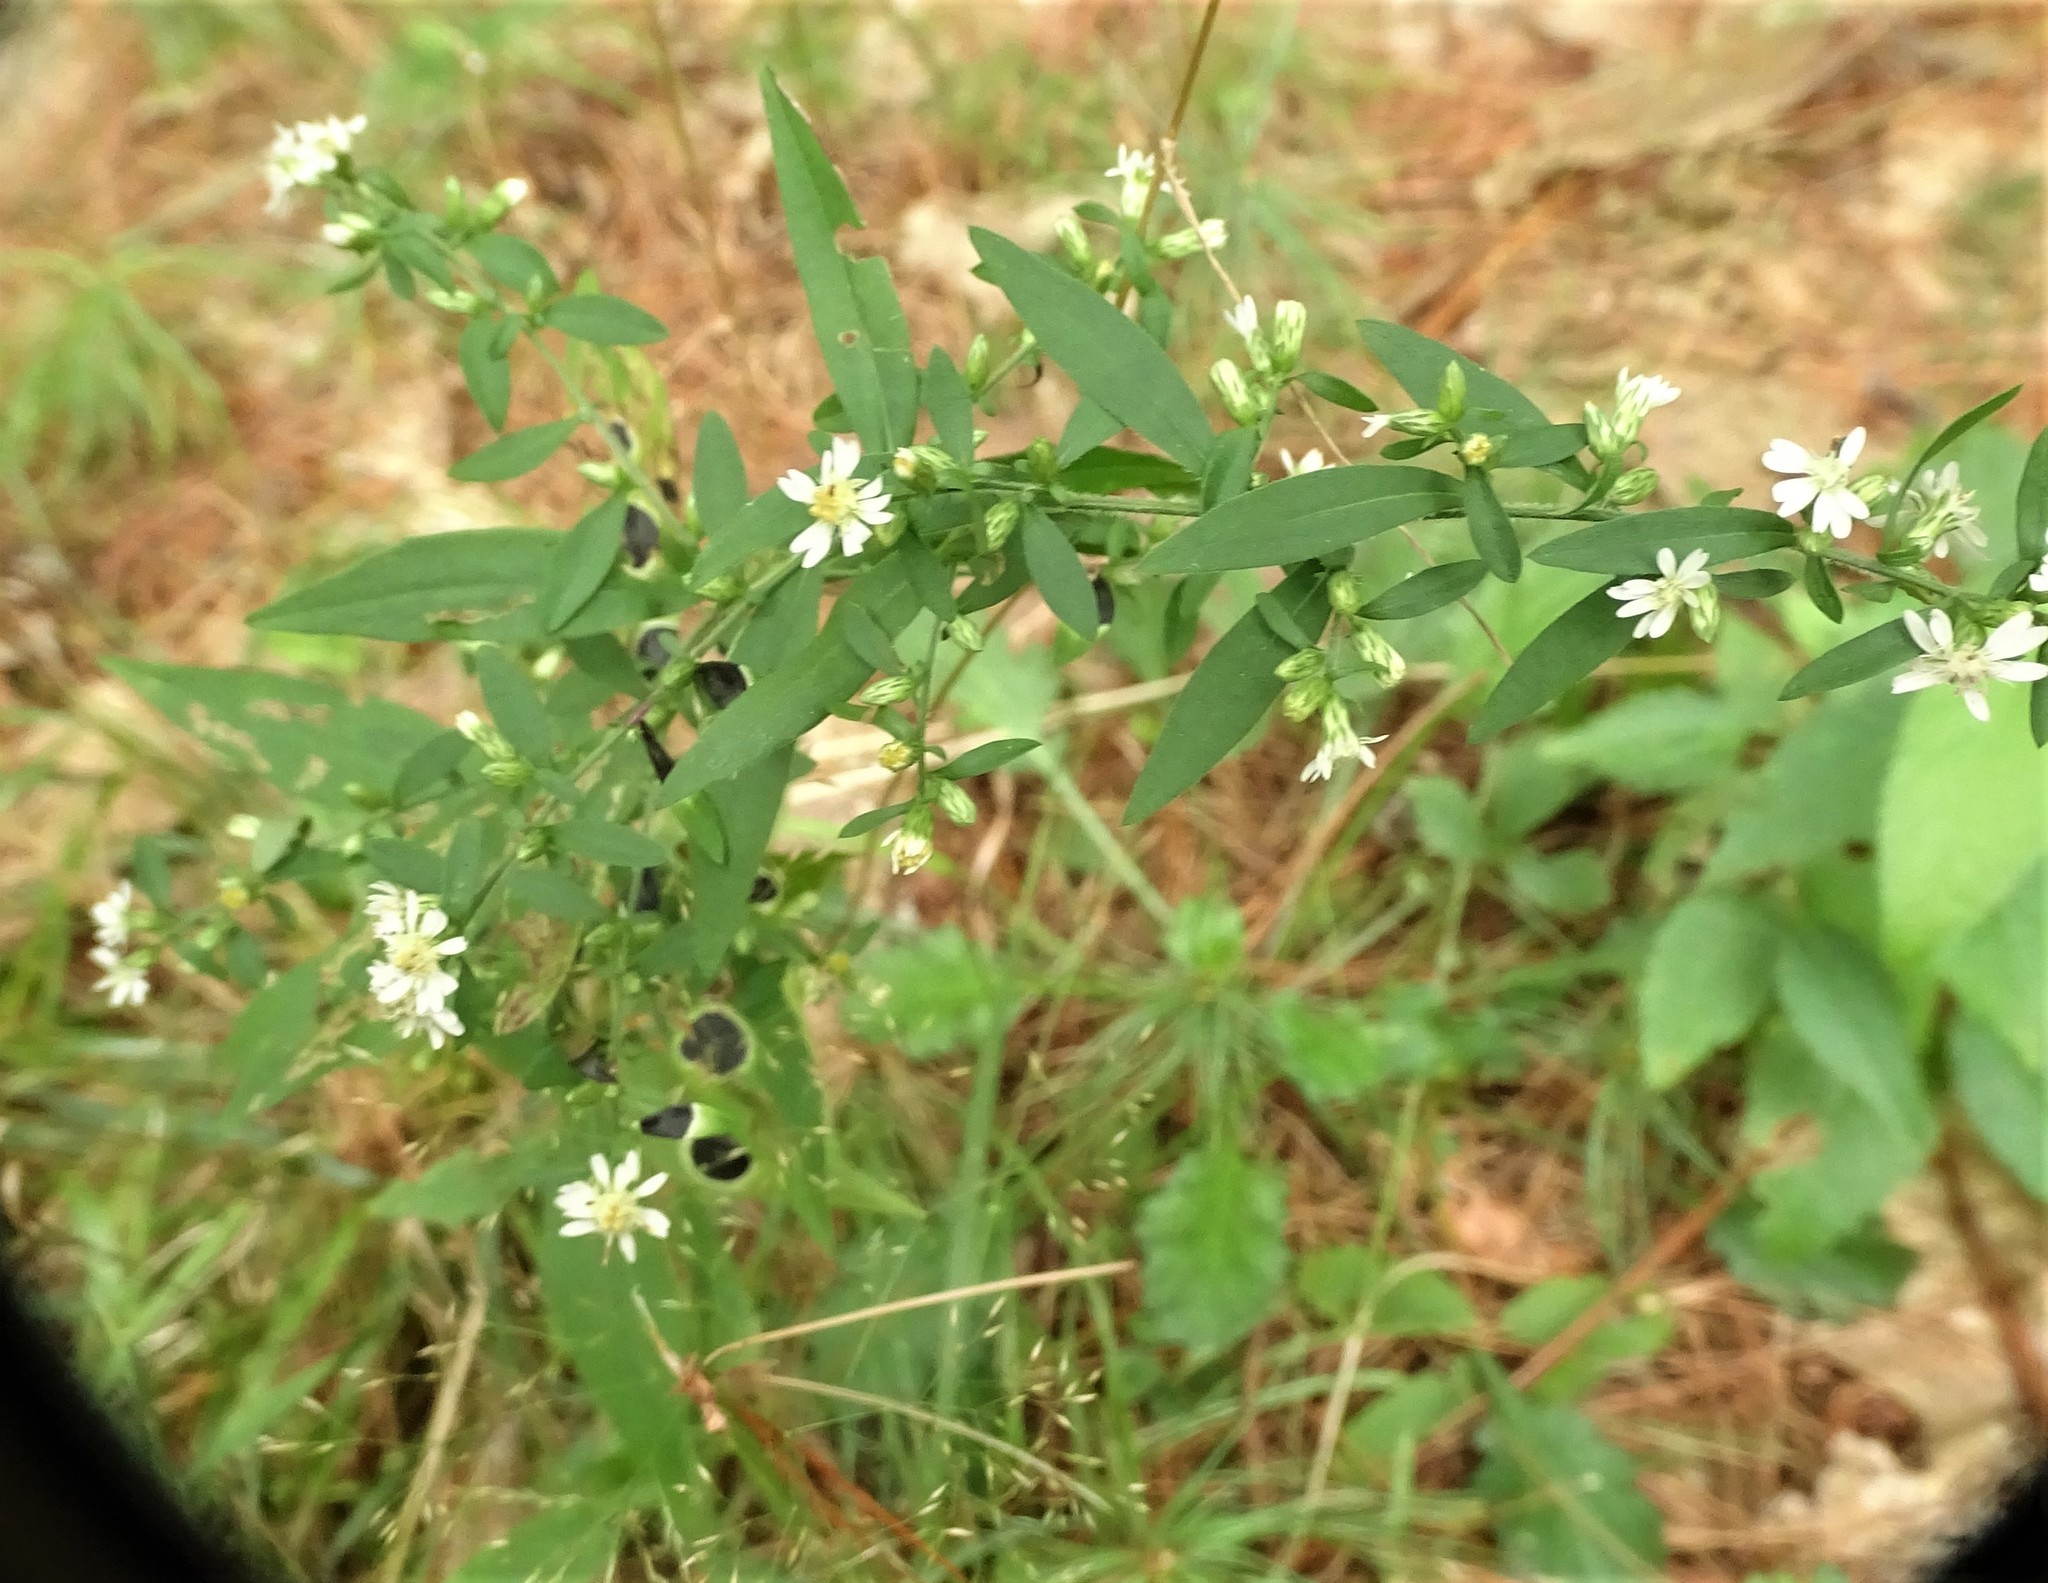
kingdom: Plantae
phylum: Tracheophyta
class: Magnoliopsida
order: Asterales
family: Asteraceae
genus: Symphyotrichum
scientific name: Symphyotrichum lateriflorum
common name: Calico aster
